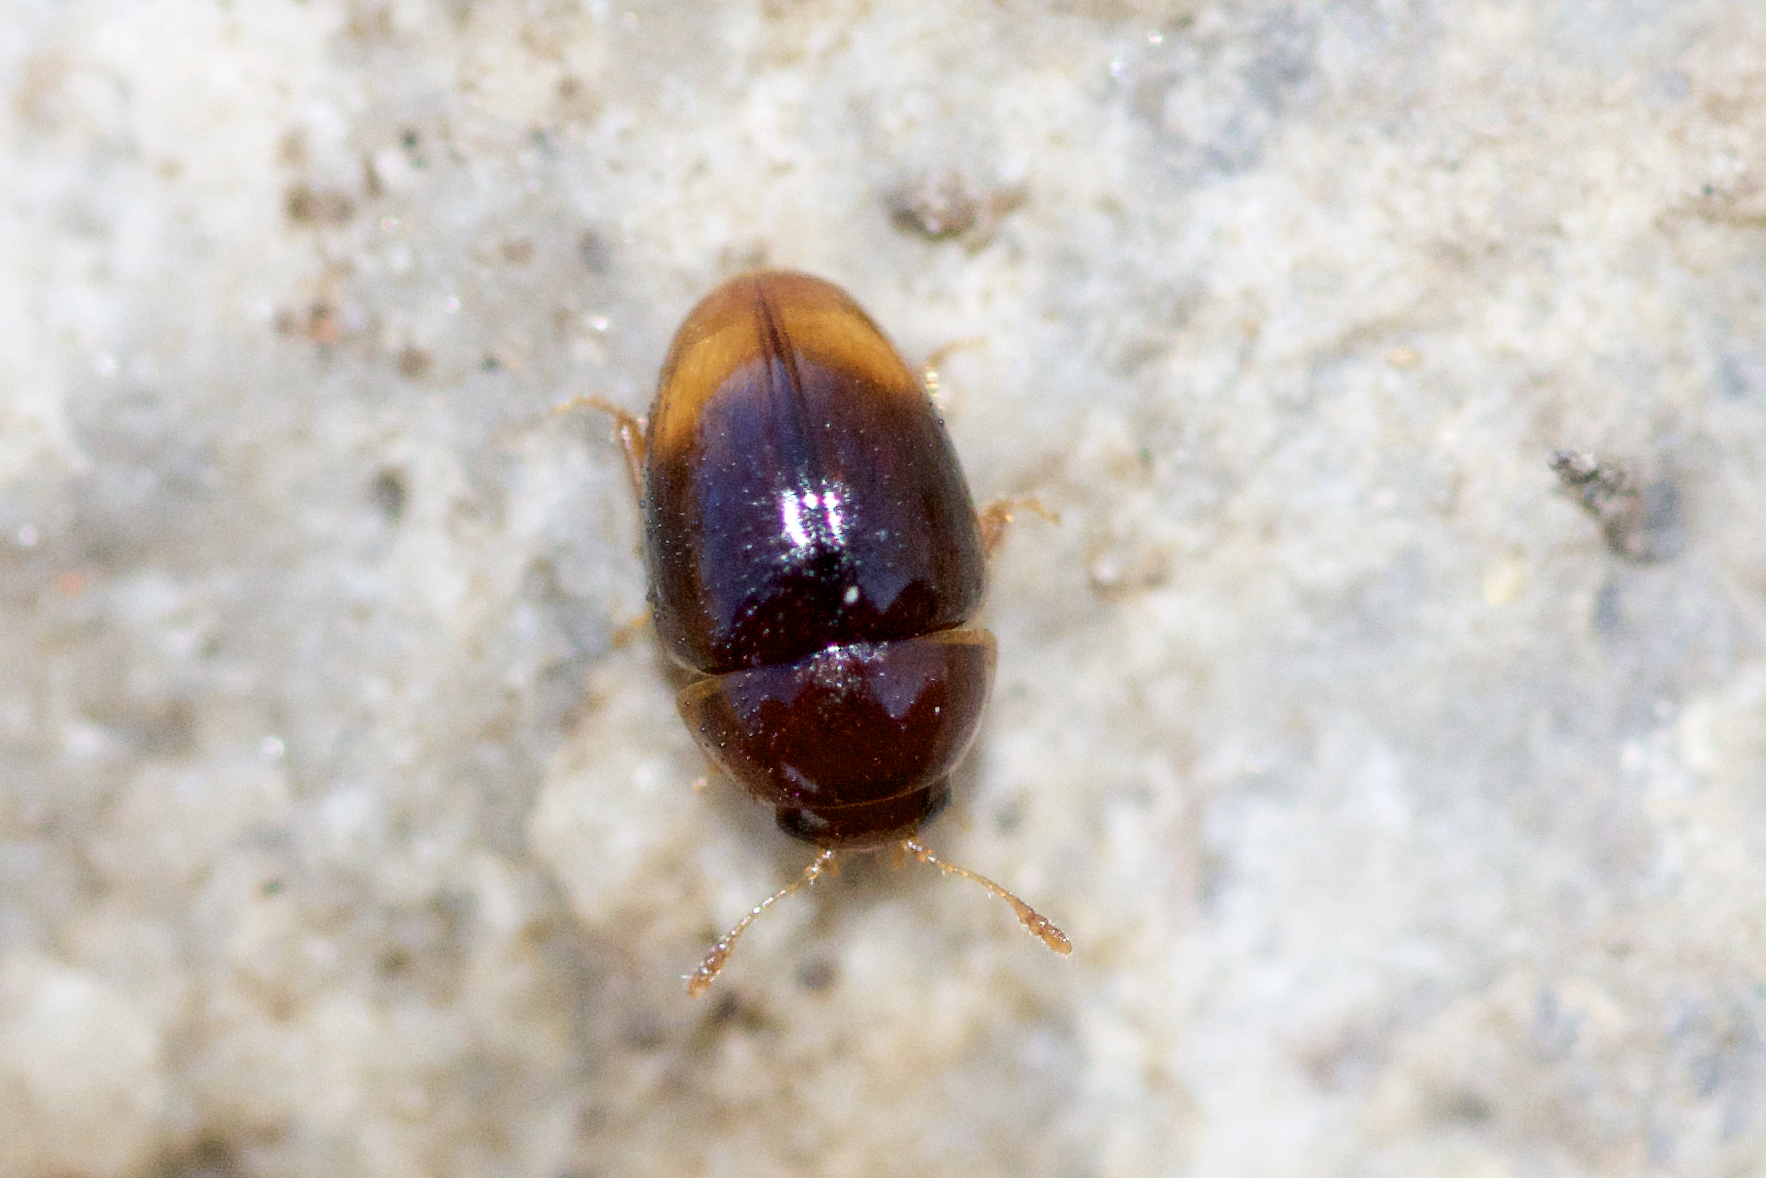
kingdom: Animalia
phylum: Arthropoda
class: Insecta
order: Coleoptera
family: Phalacridae
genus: Phalacrus
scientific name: Phalacrus apicalis
